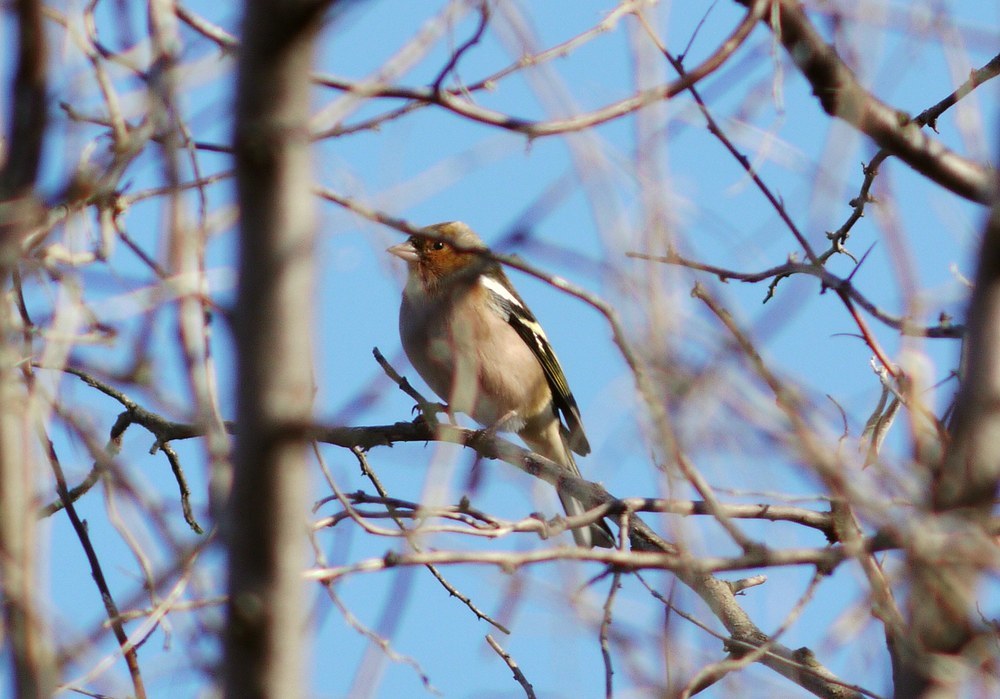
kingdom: Animalia
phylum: Chordata
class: Aves
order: Passeriformes
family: Fringillidae
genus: Fringilla
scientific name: Fringilla coelebs
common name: Common chaffinch
